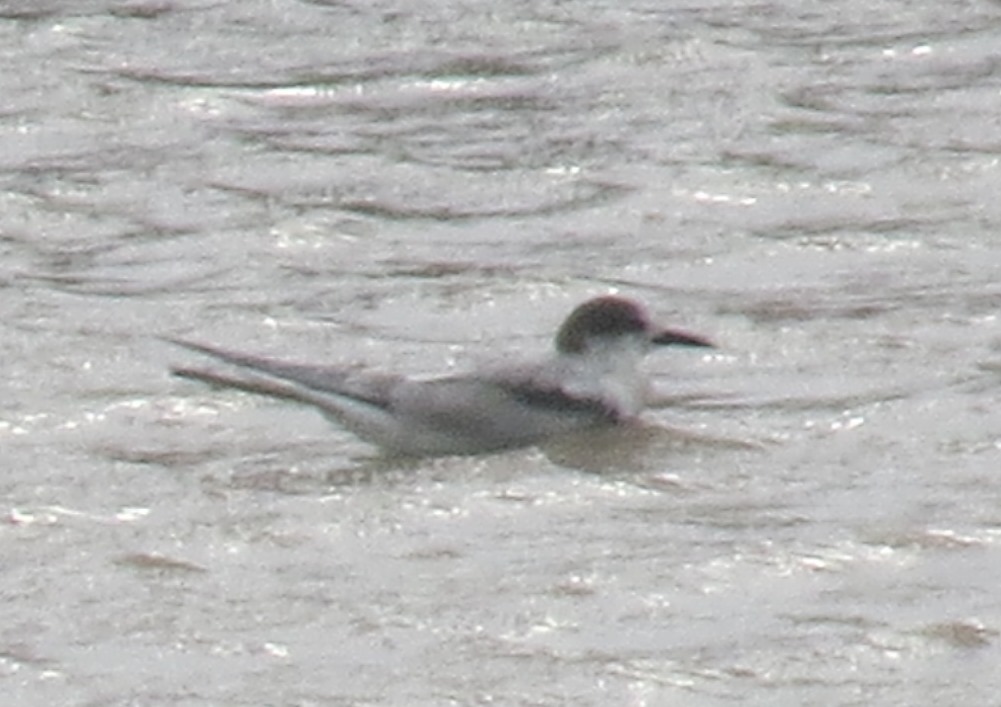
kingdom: Animalia
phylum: Chordata
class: Aves
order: Charadriiformes
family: Laridae
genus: Sterna
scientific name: Sterna hirundo
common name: Common tern
